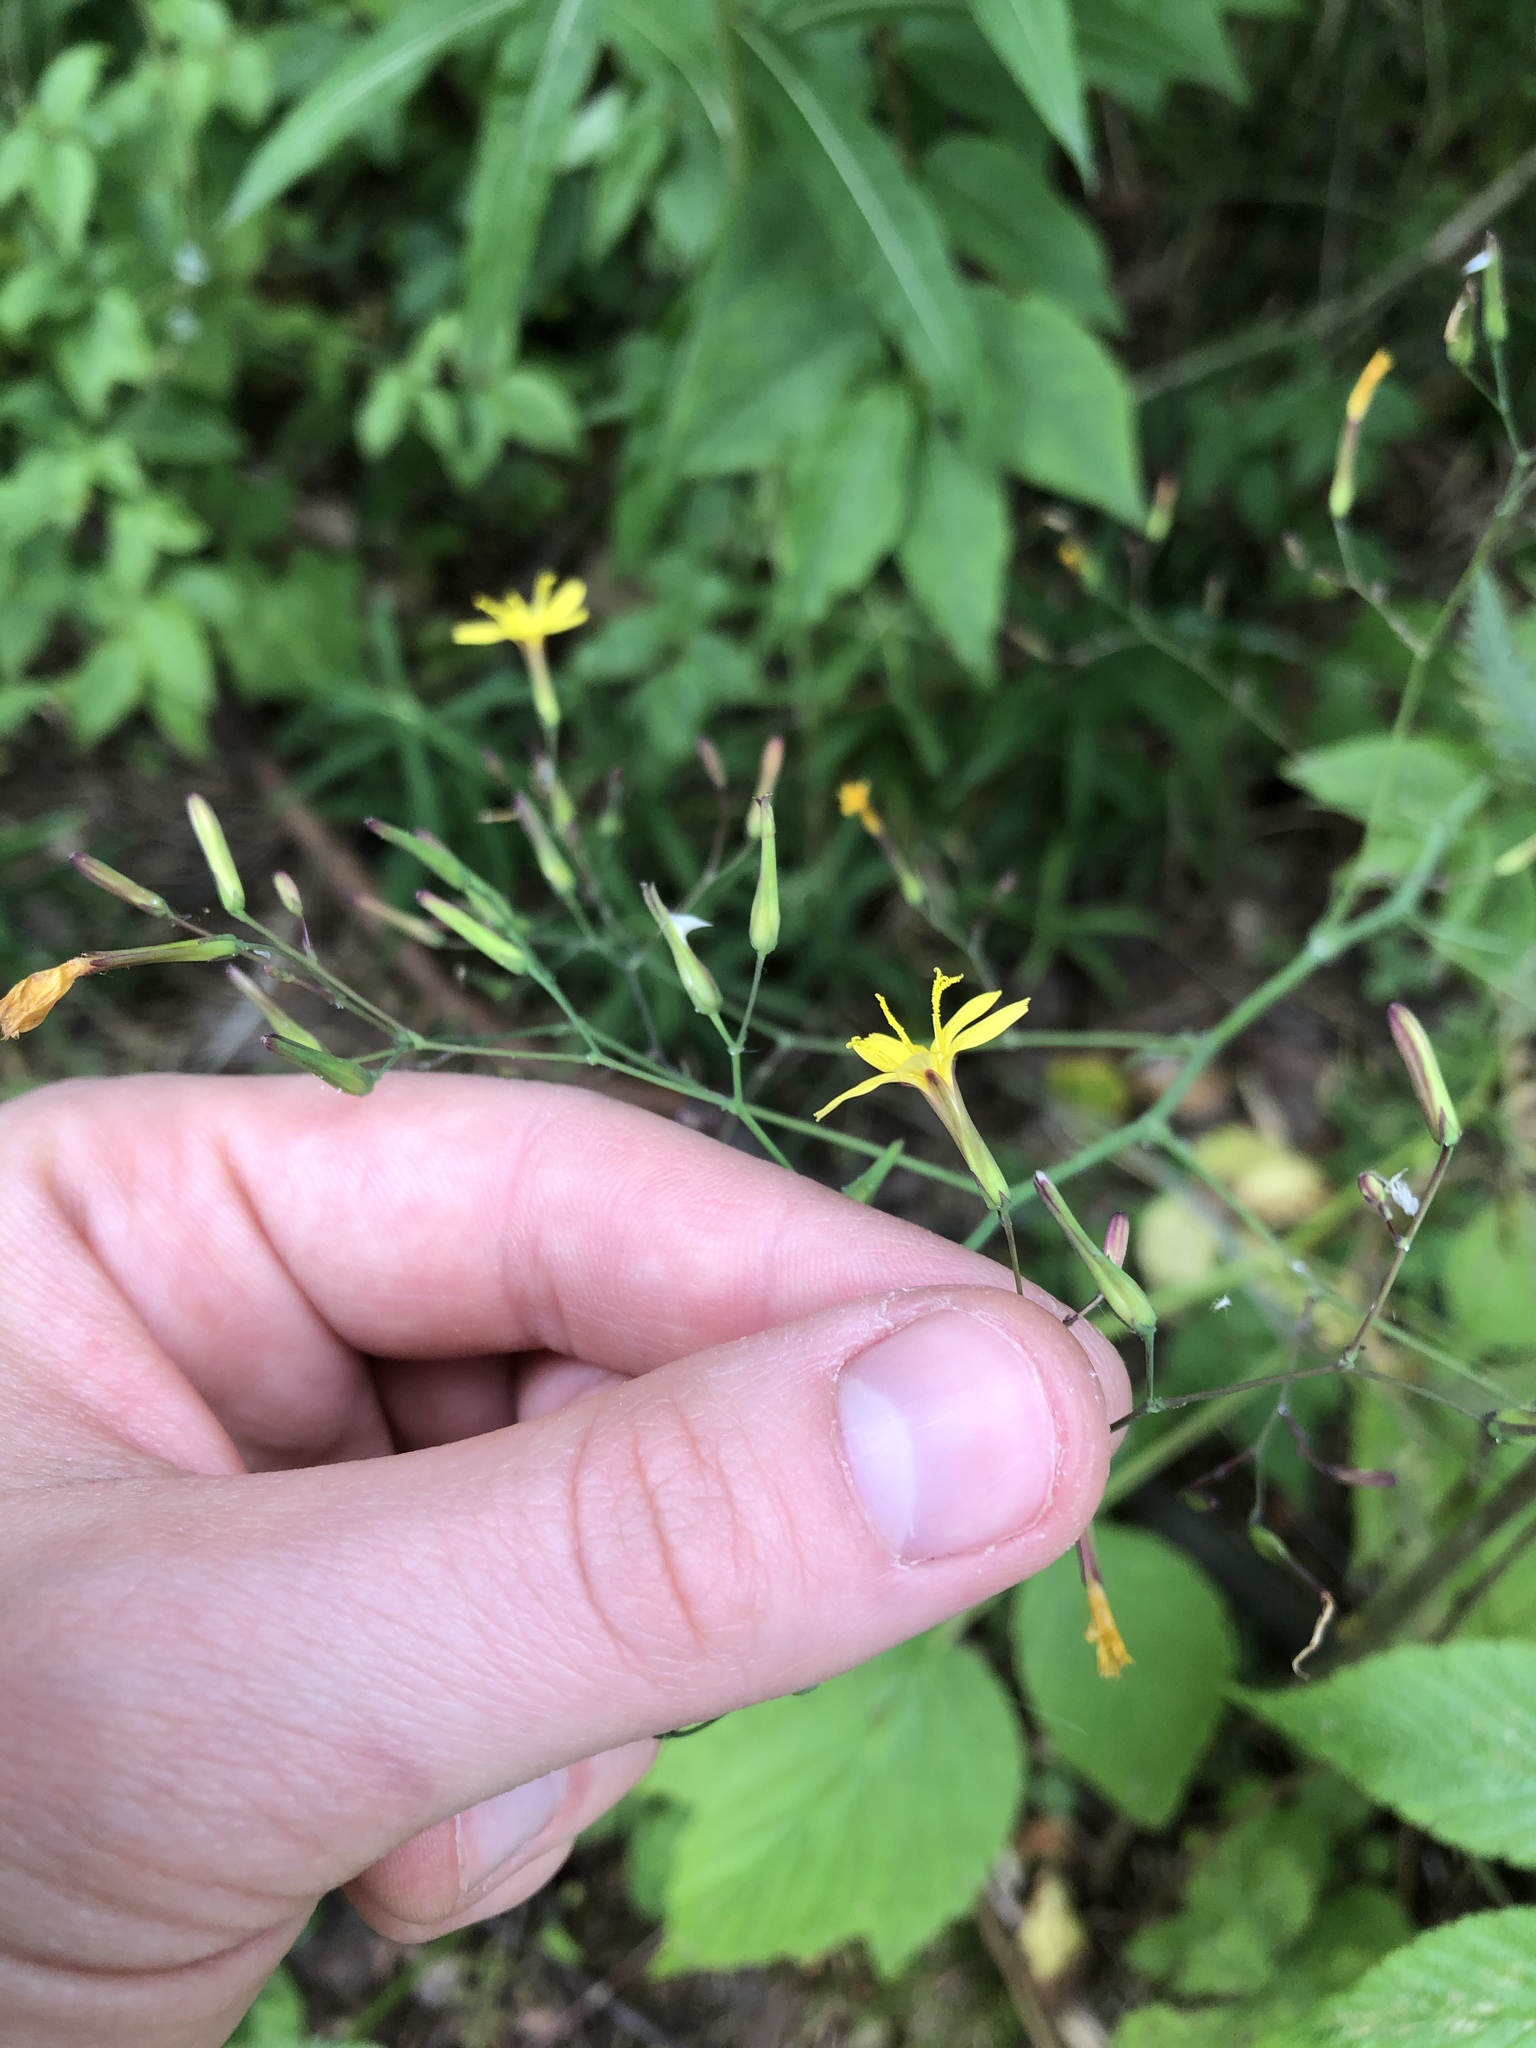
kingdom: Plantae
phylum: Tracheophyta
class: Magnoliopsida
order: Asterales
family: Asteraceae
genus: Mycelis
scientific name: Mycelis muralis
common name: Wall lettuce
